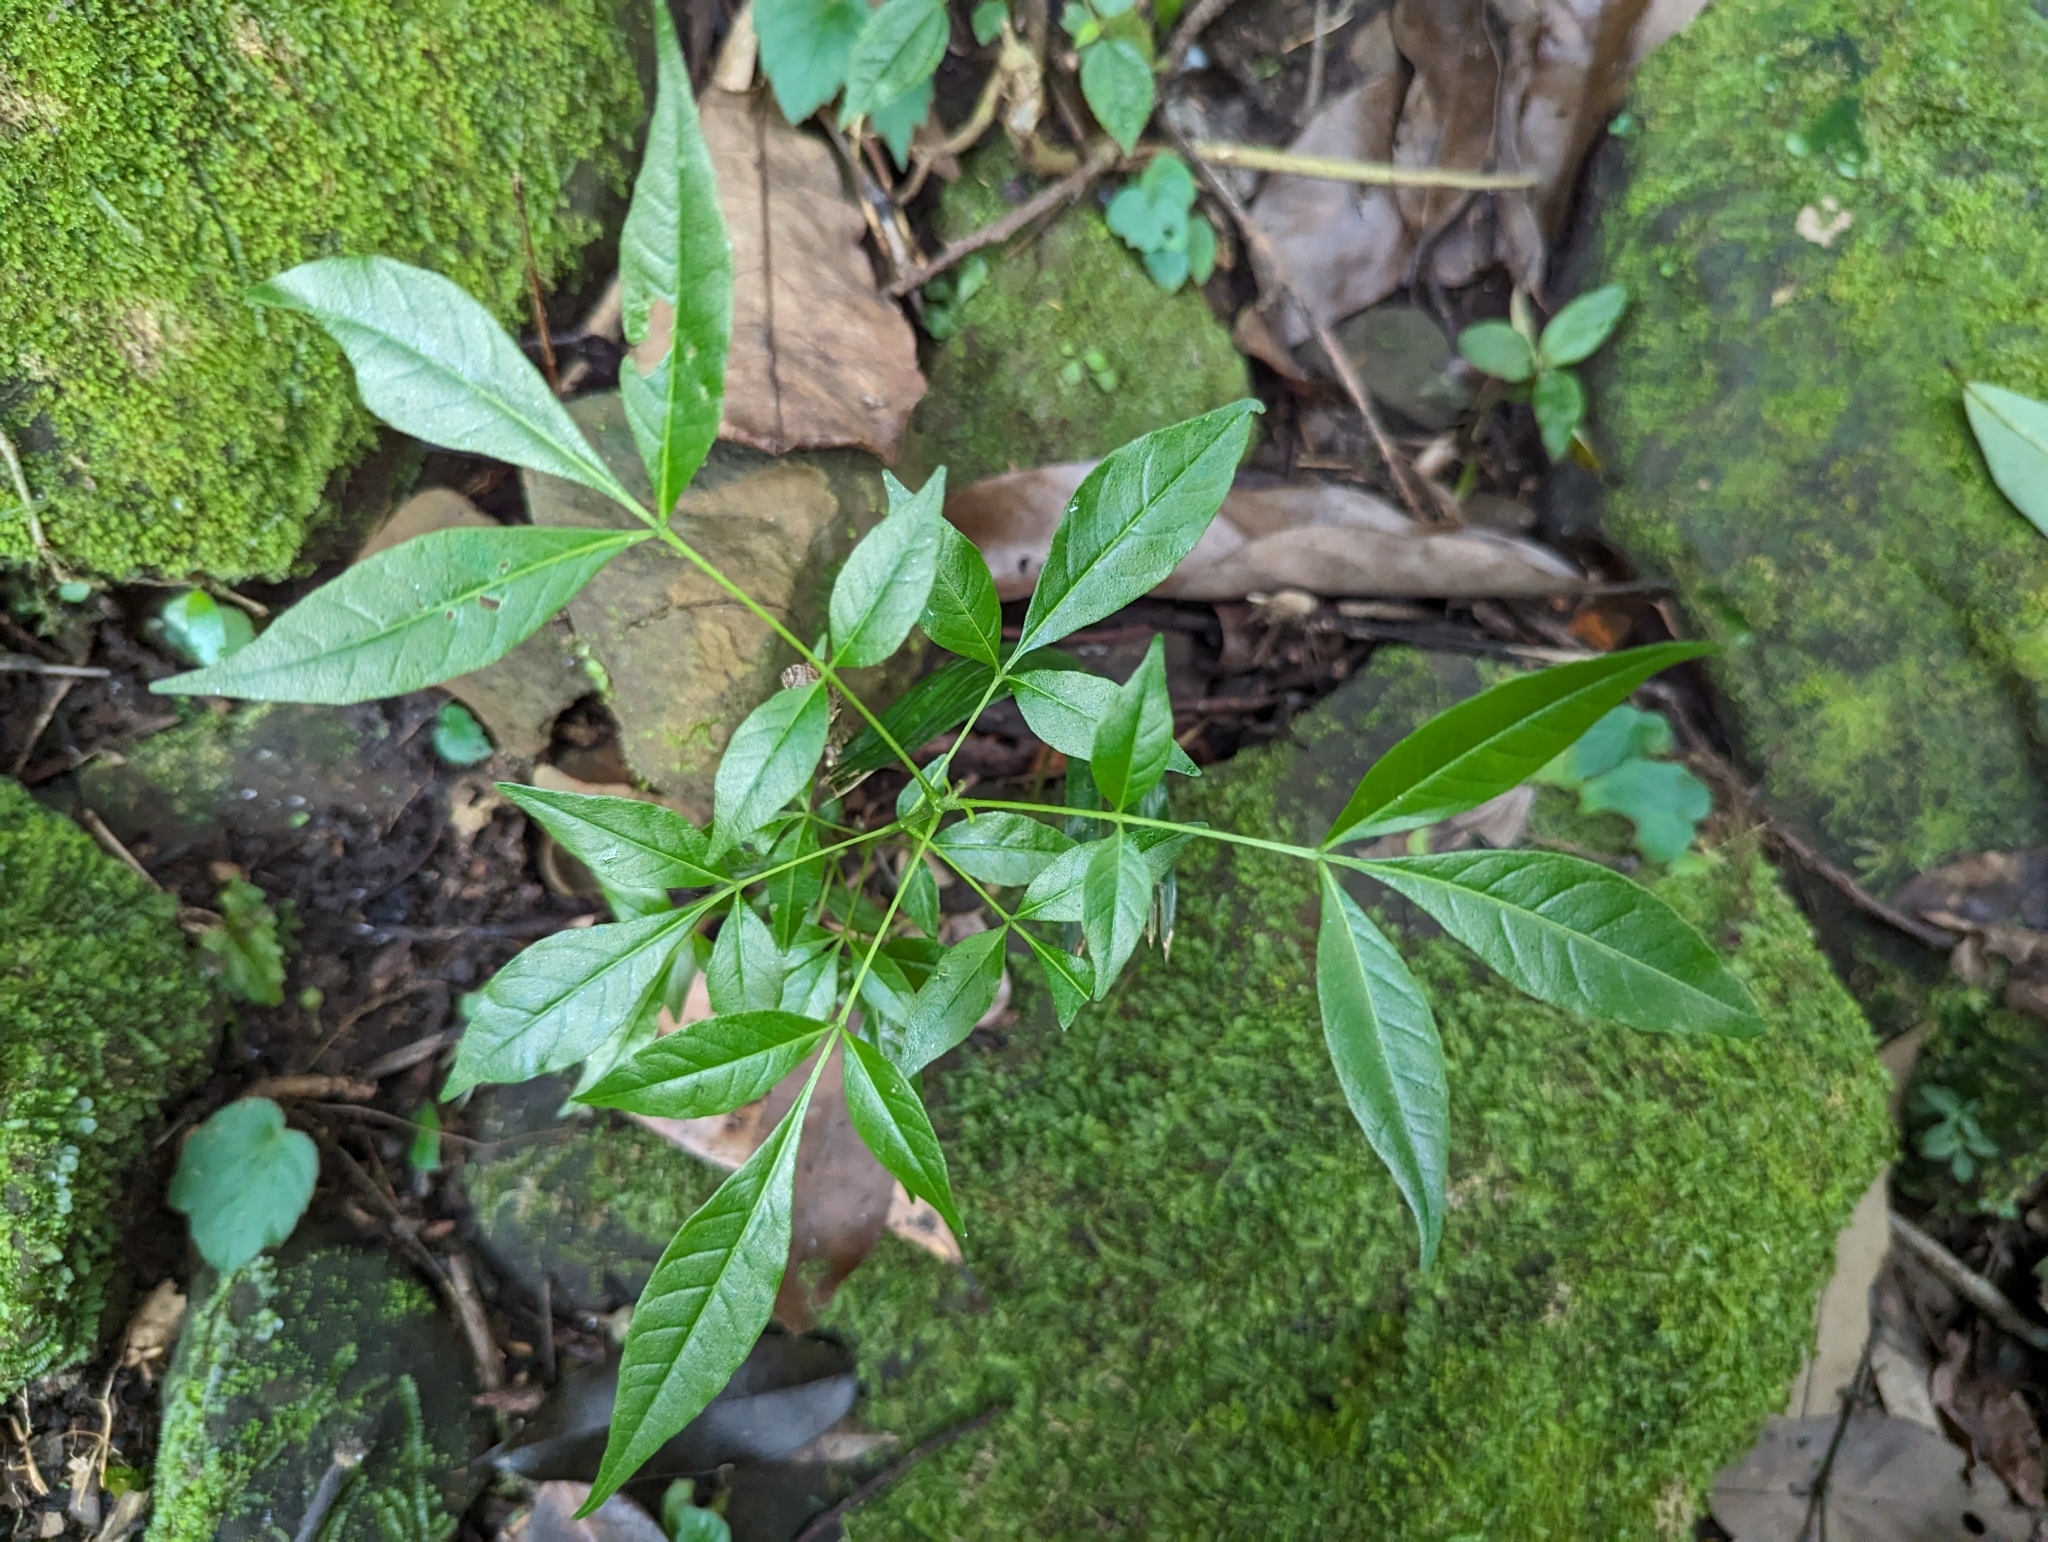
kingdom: Plantae
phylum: Tracheophyta
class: Magnoliopsida
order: Sapindales
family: Rutaceae
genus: Tetradium
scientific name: Tetradium ruticarpum
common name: Evodia
